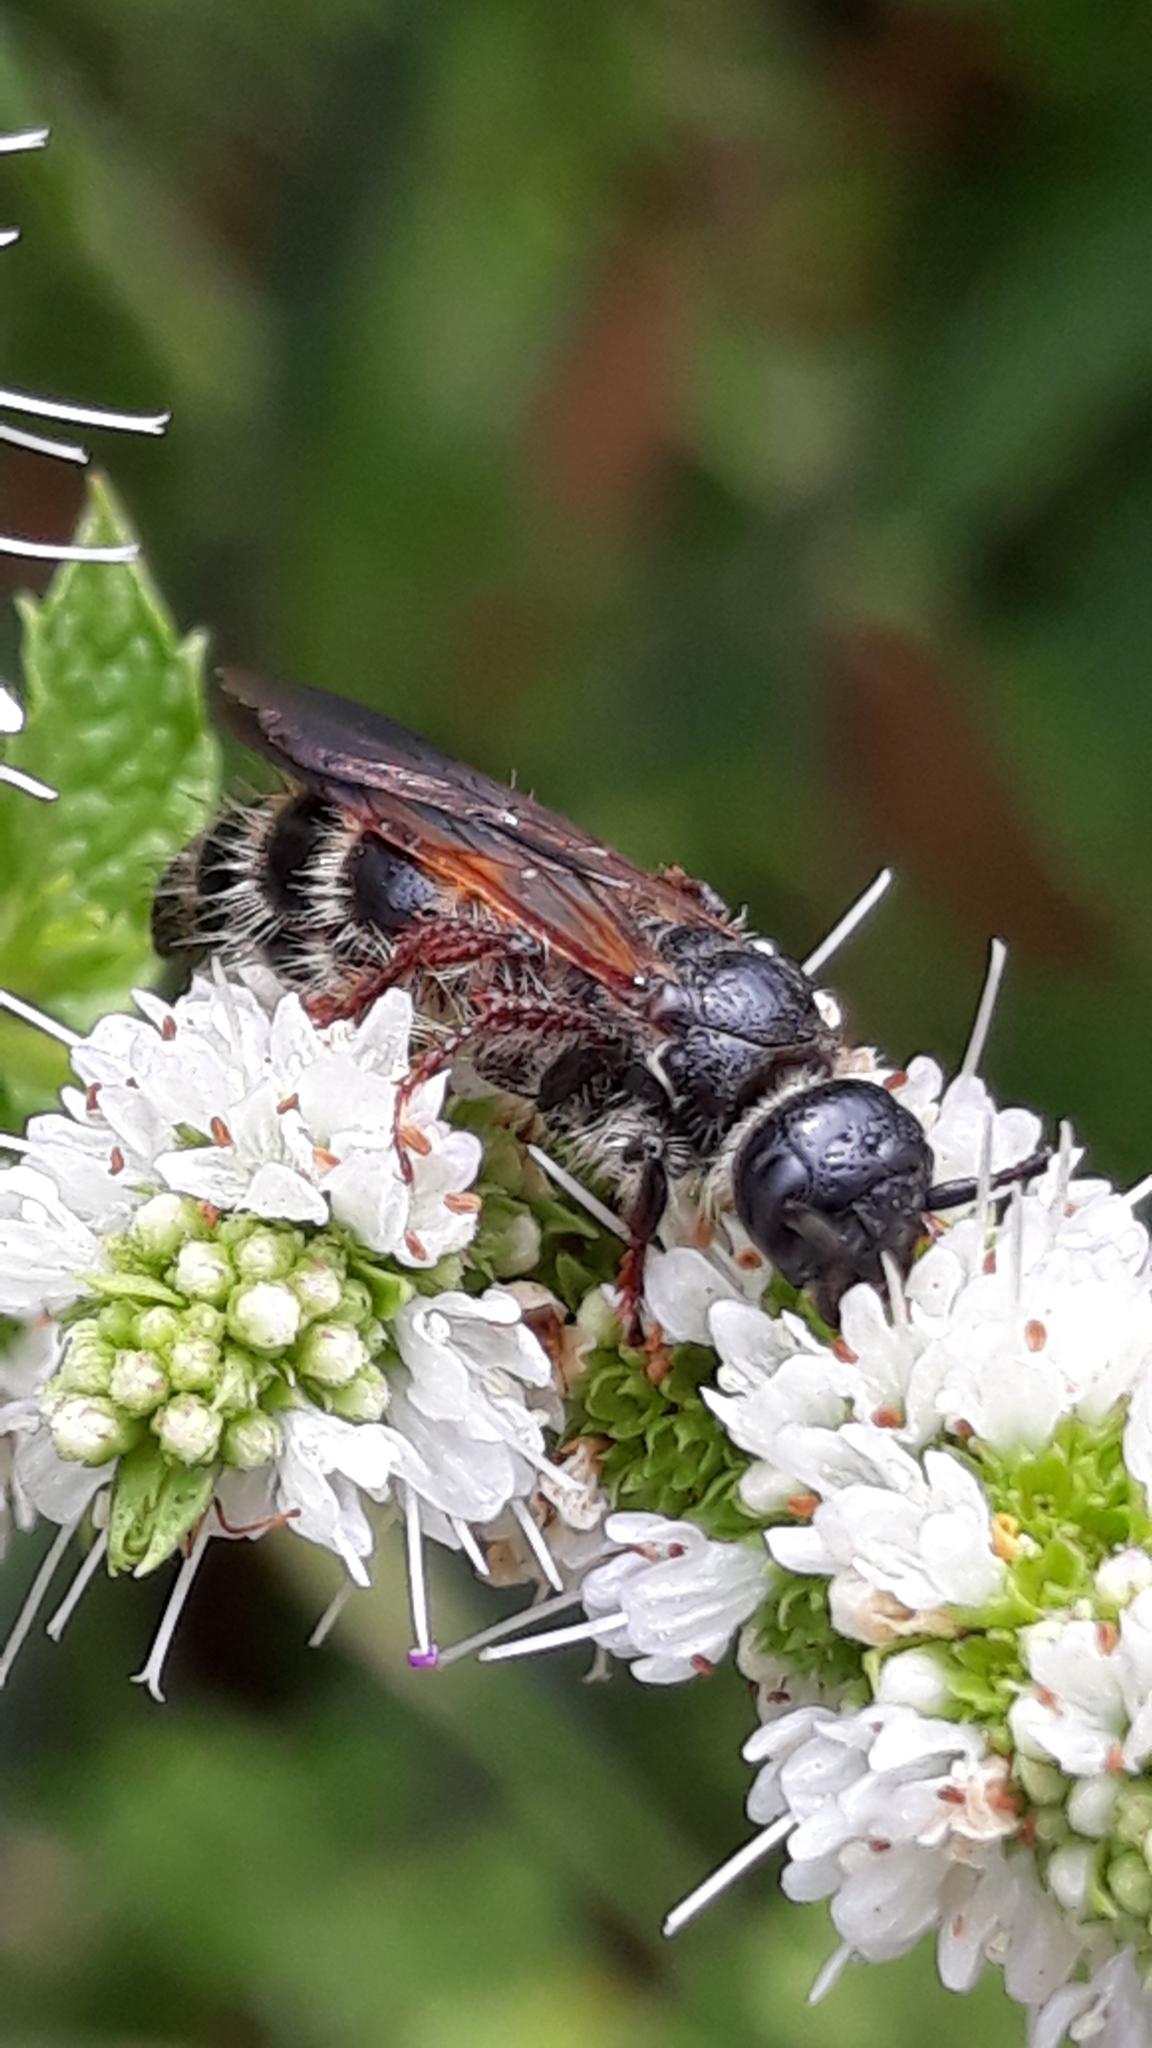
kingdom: Animalia
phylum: Arthropoda
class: Insecta
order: Hymenoptera
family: Scoliidae
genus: Colpa
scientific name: Colpa quinquecincta
